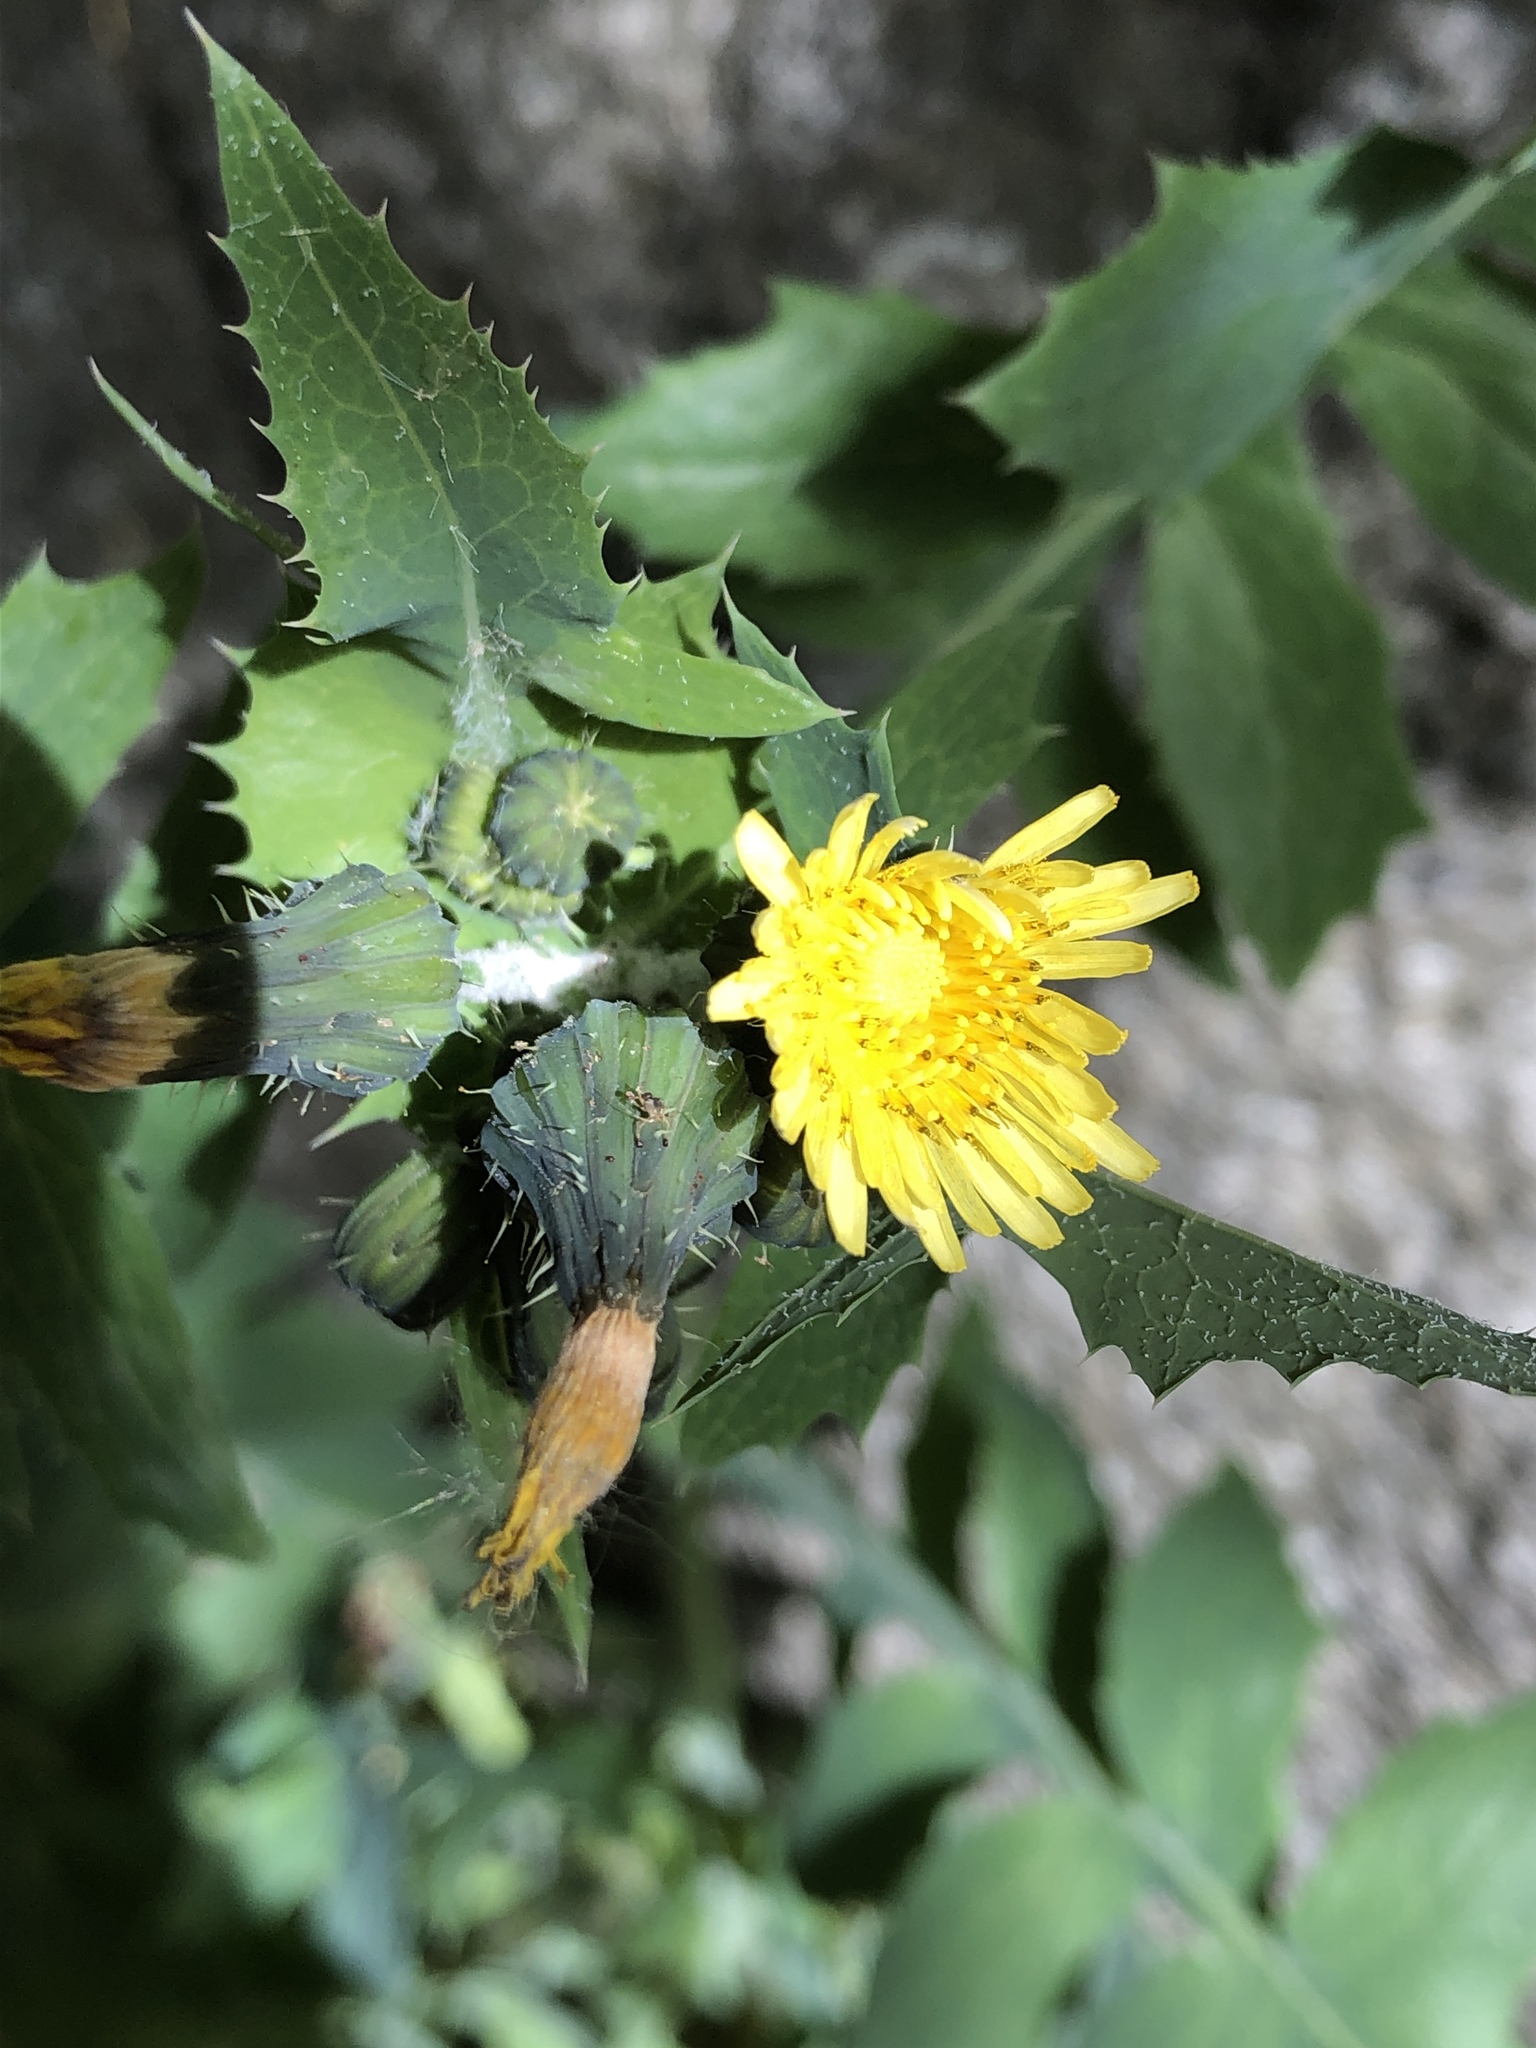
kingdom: Plantae
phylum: Tracheophyta
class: Magnoliopsida
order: Asterales
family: Asteraceae
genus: Sonchus
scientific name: Sonchus oleraceus
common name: Common sowthistle
